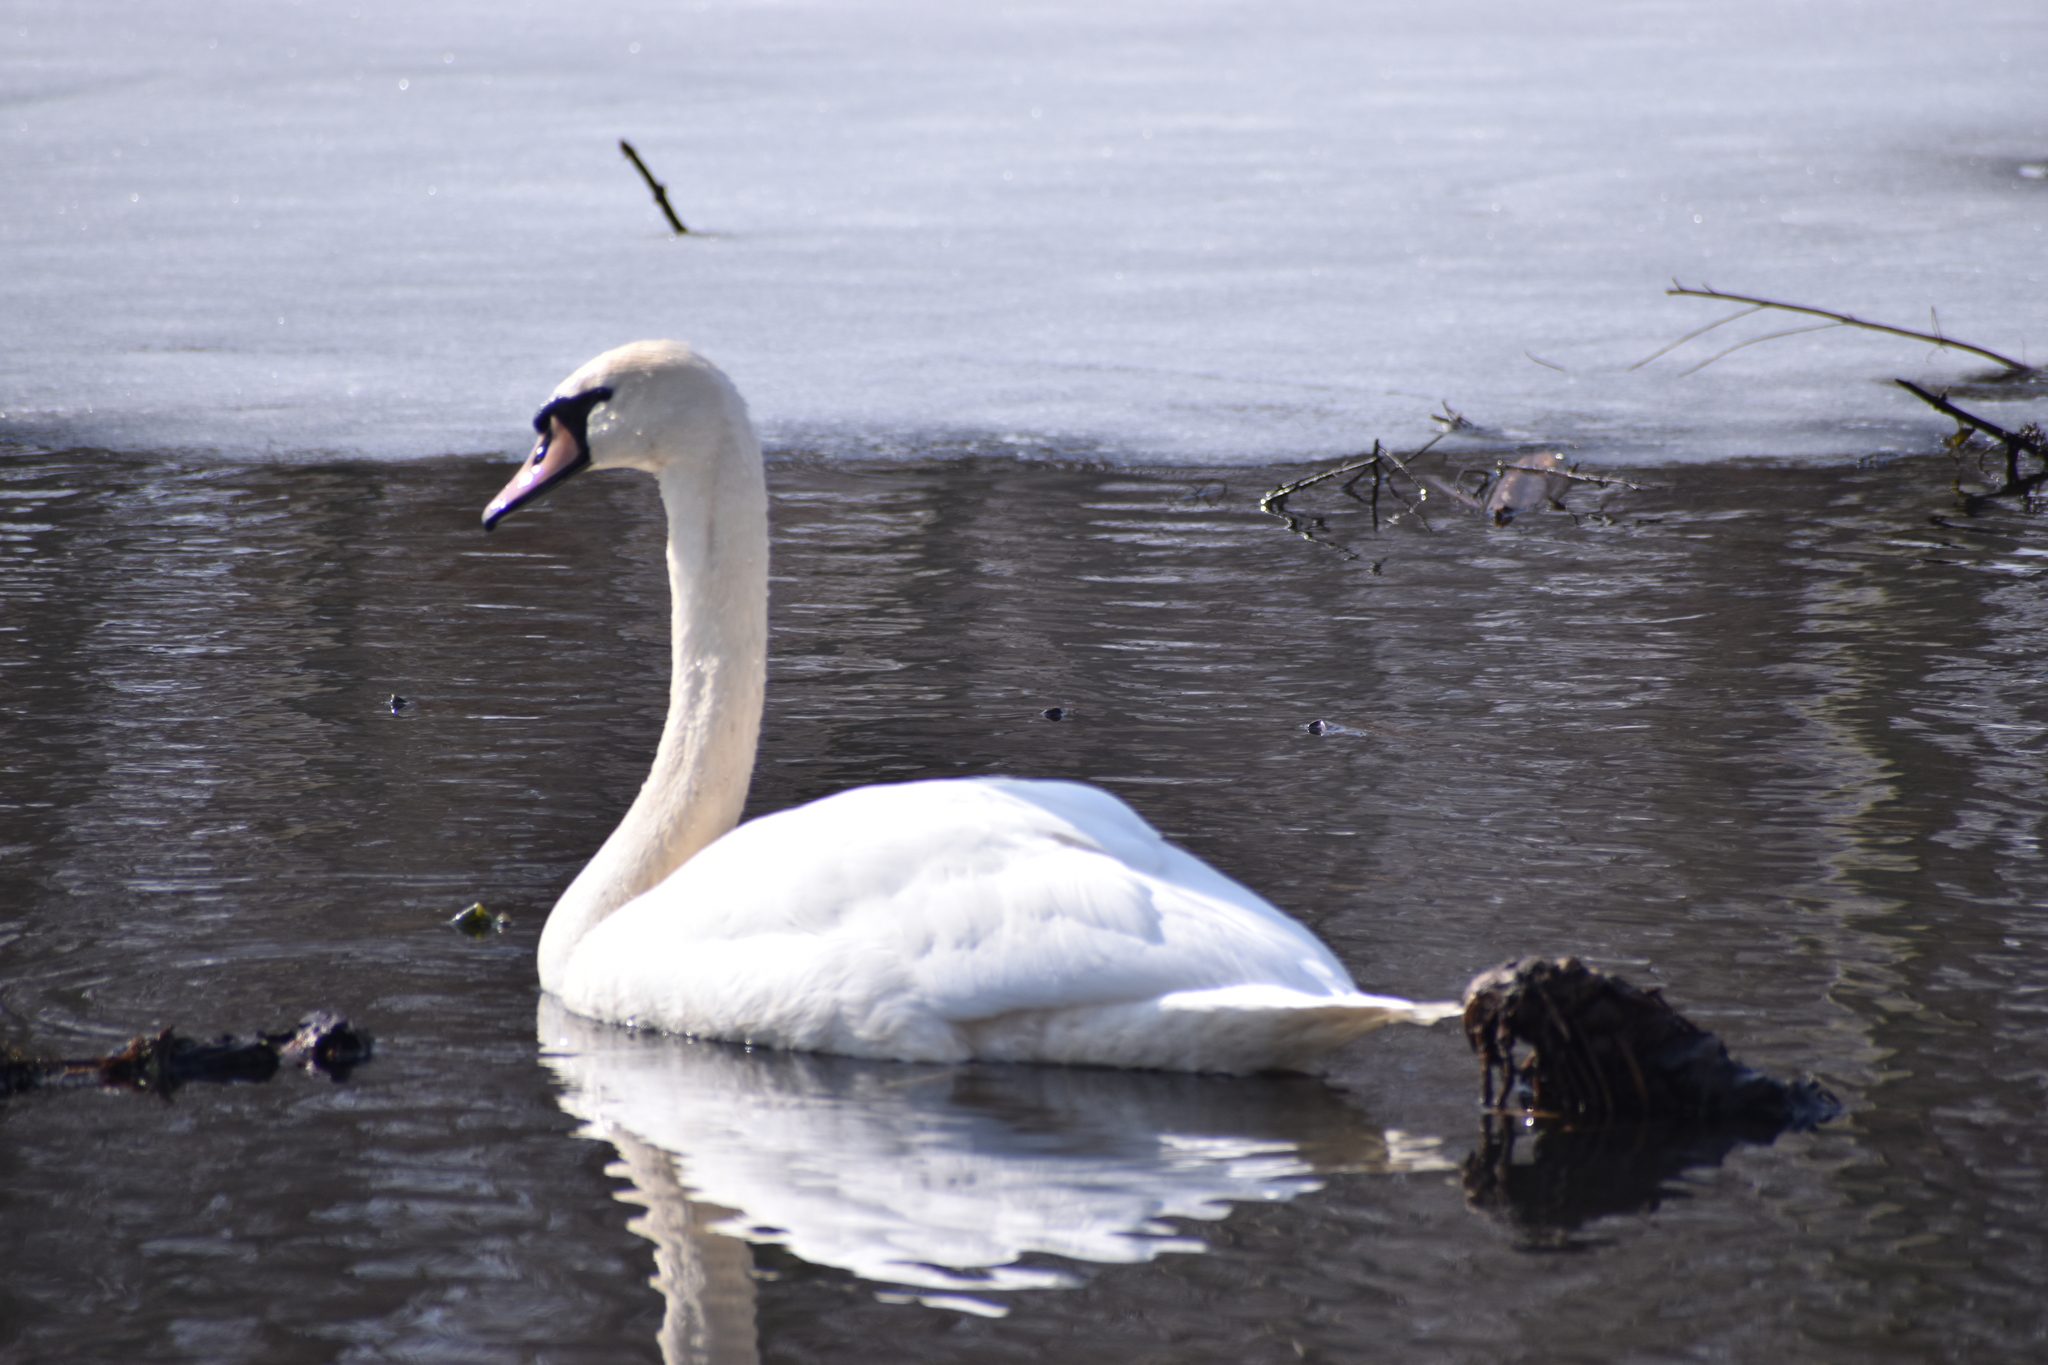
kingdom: Animalia
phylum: Chordata
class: Aves
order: Anseriformes
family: Anatidae
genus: Cygnus
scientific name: Cygnus olor
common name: Mute swan
